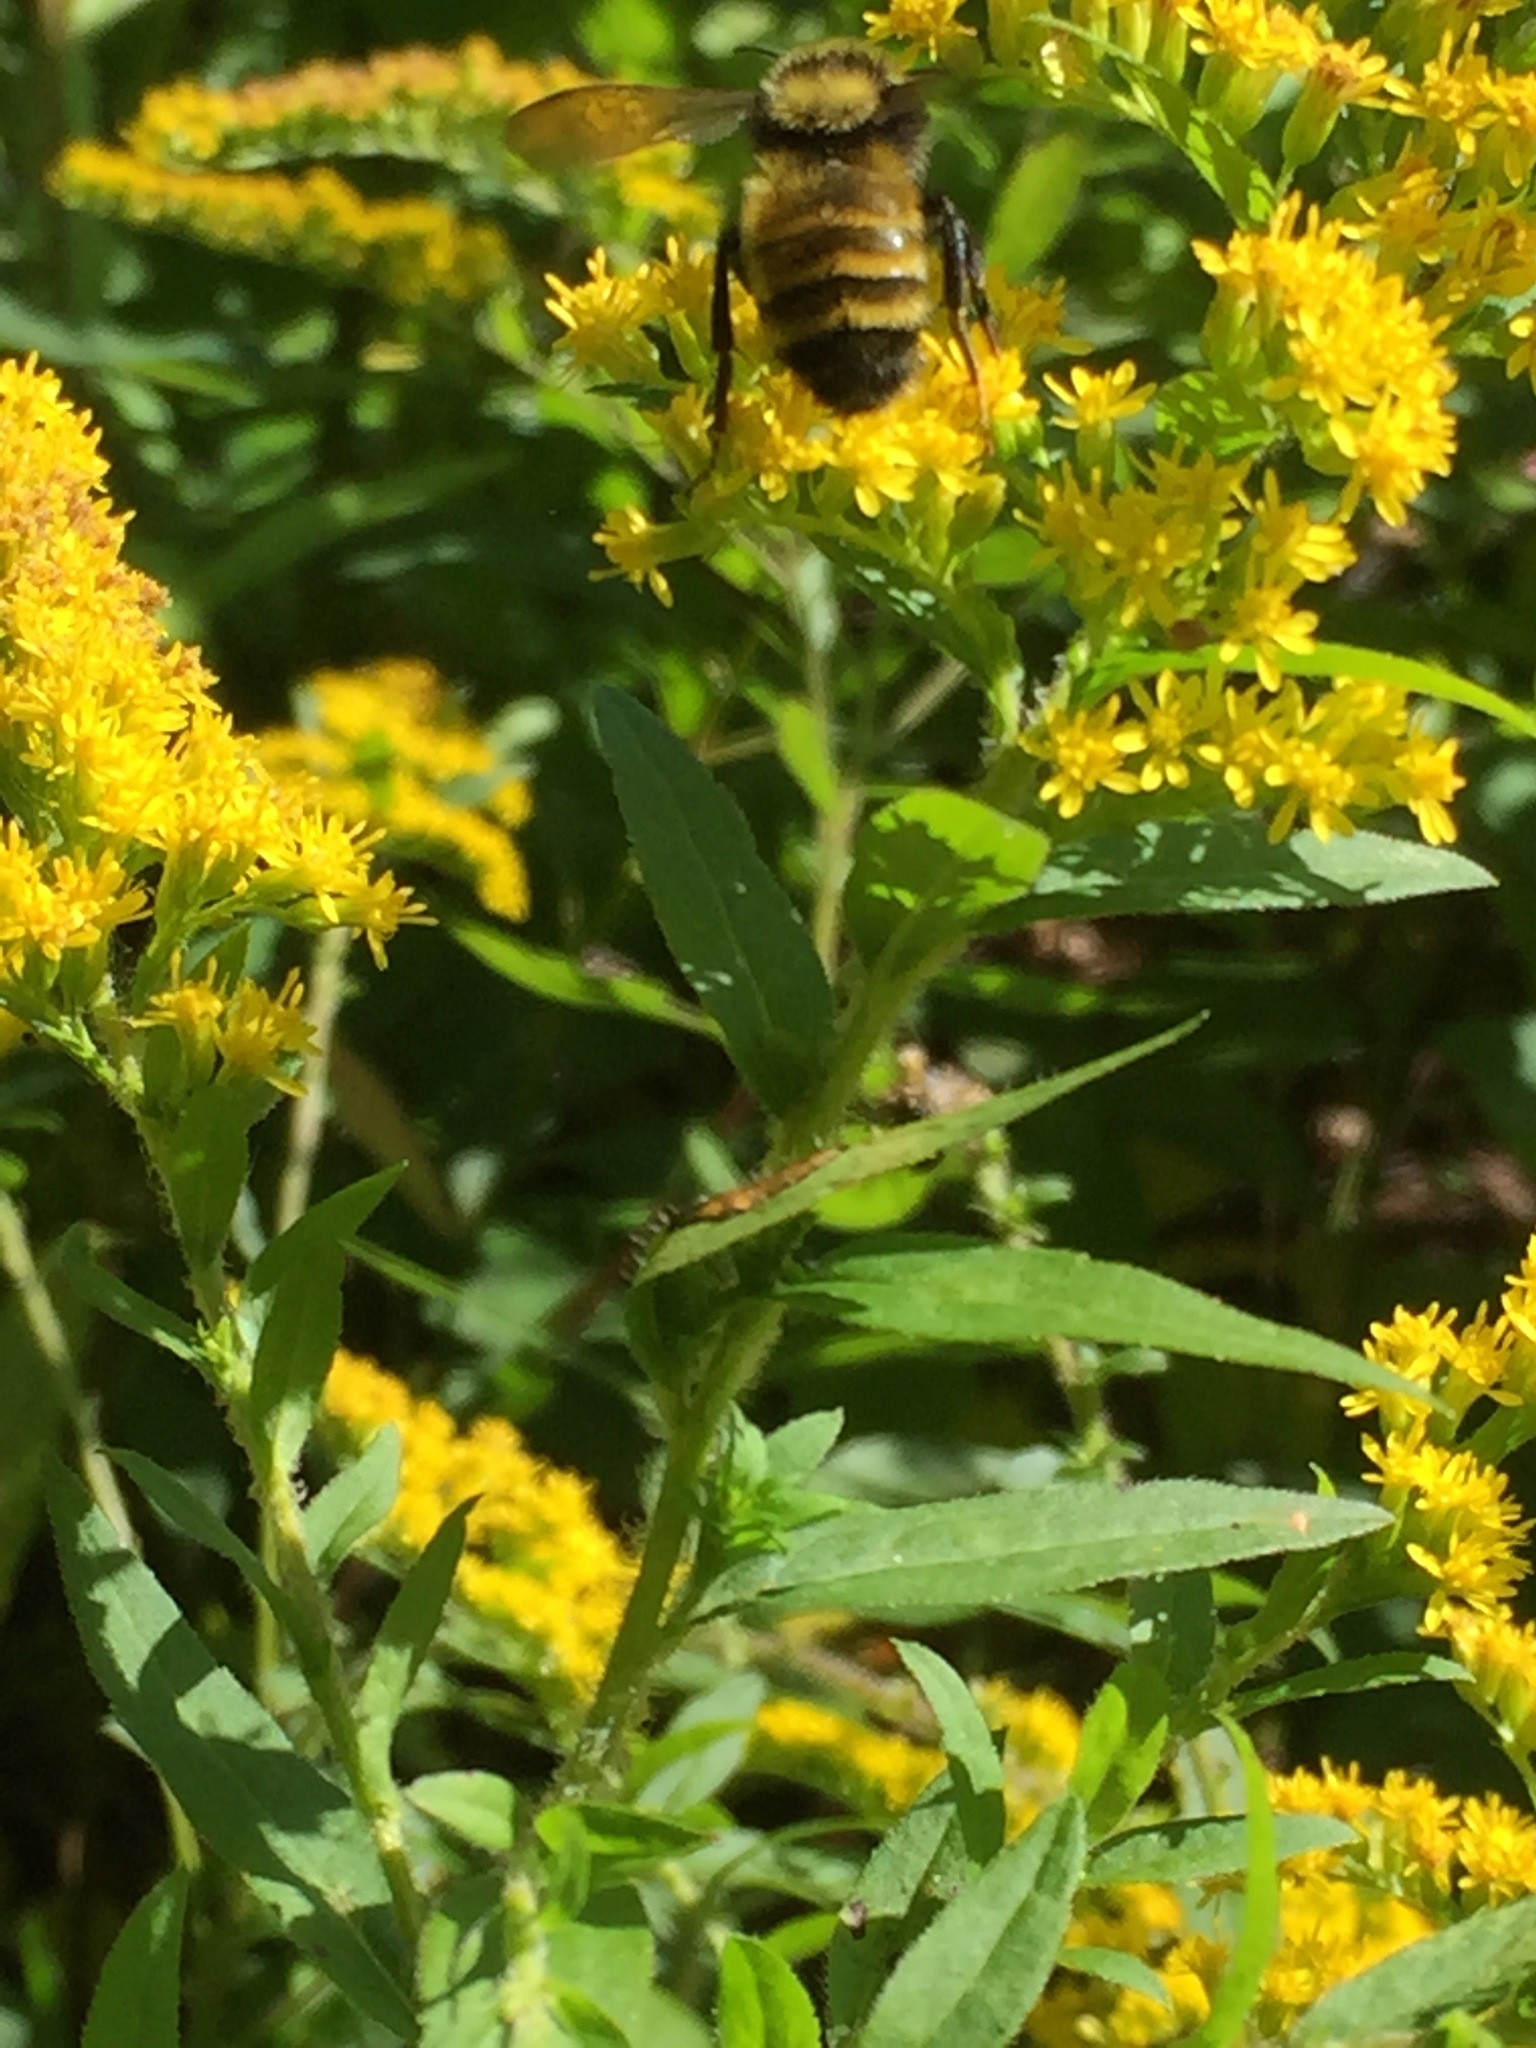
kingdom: Animalia
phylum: Arthropoda
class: Insecta
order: Hymenoptera
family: Apidae
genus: Bombus
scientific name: Bombus borealis
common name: Northern amber bumble bee
